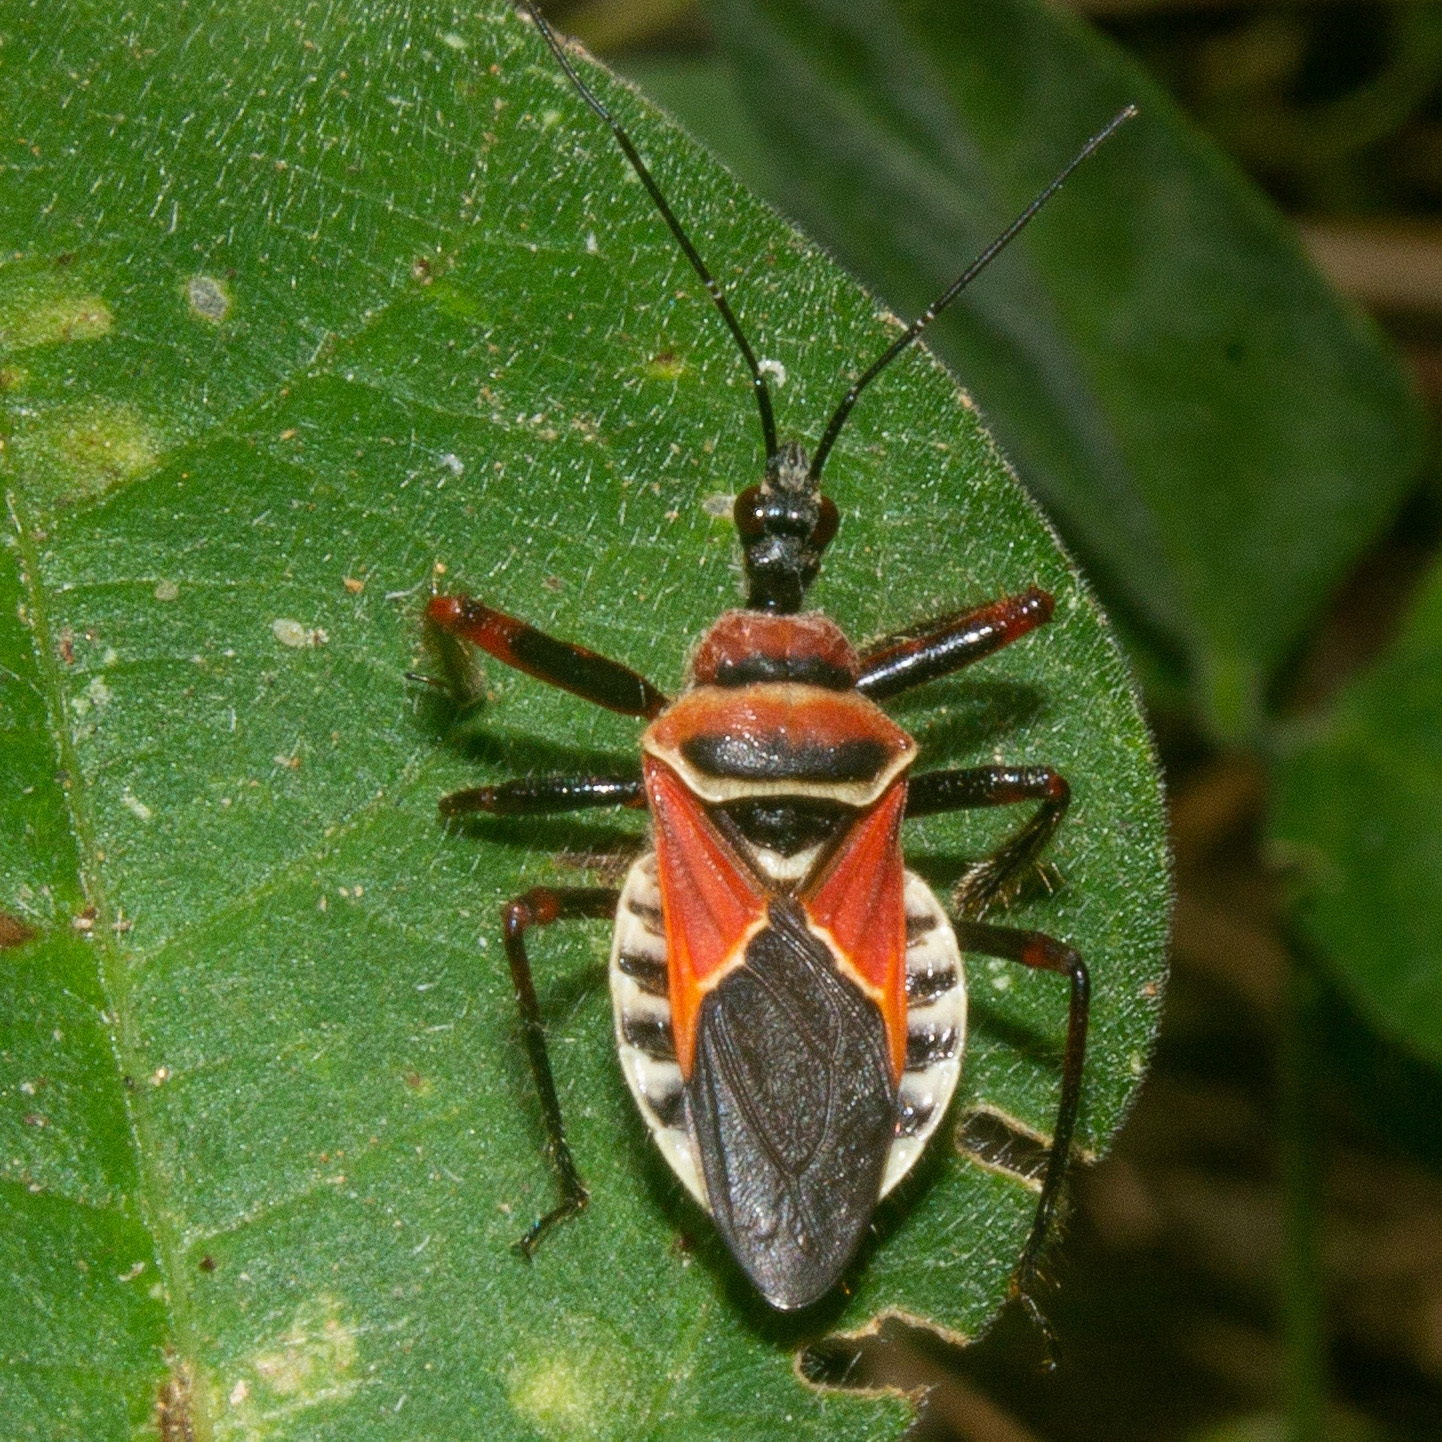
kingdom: Animalia
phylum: Arthropoda
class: Insecta
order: Hemiptera
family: Reduviidae
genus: Apiomerus
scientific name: Apiomerus pictipes
